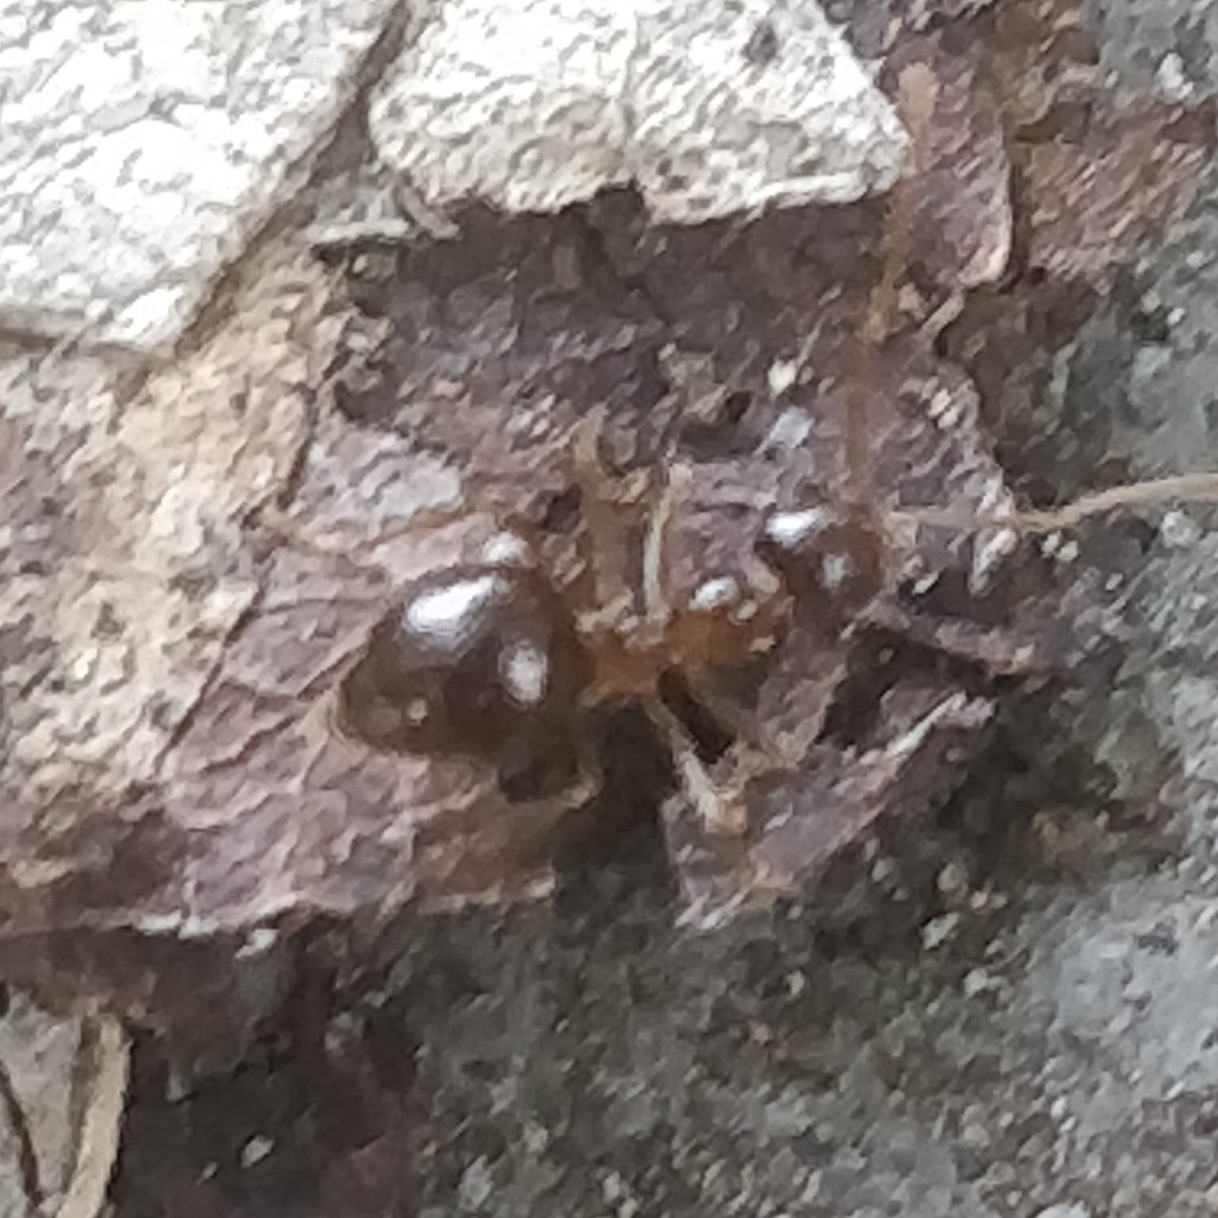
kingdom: Animalia
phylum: Arthropoda
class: Insecta
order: Hymenoptera
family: Formicidae
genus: Prenolepis
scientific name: Prenolepis imparis
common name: Small honey ant
